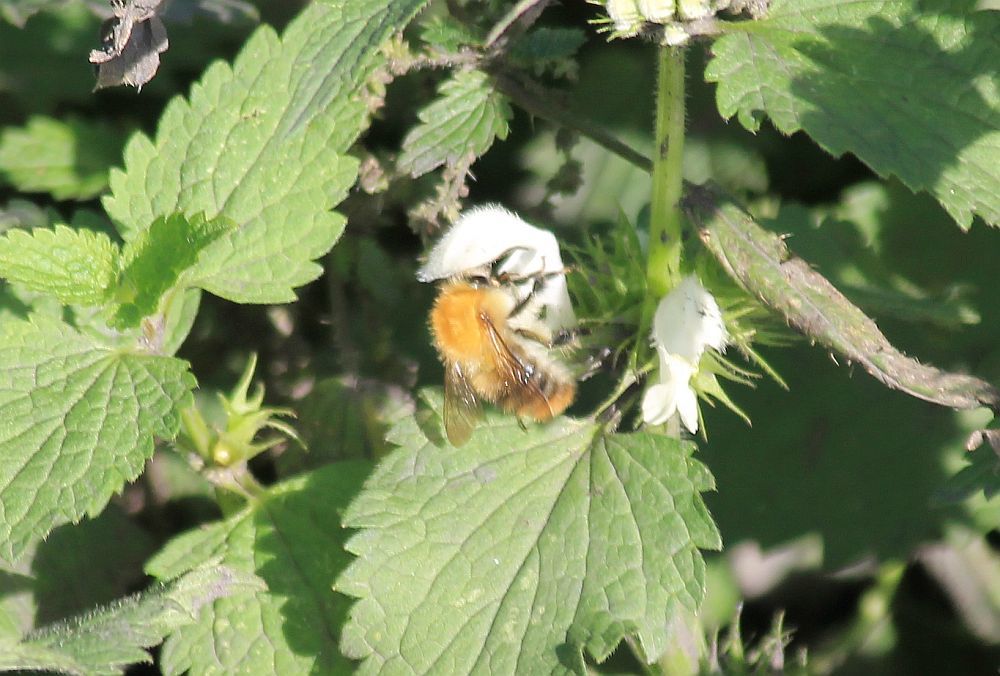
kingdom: Animalia
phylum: Arthropoda
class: Insecta
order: Hymenoptera
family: Apidae
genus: Bombus
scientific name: Bombus pascuorum
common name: Common carder bee
